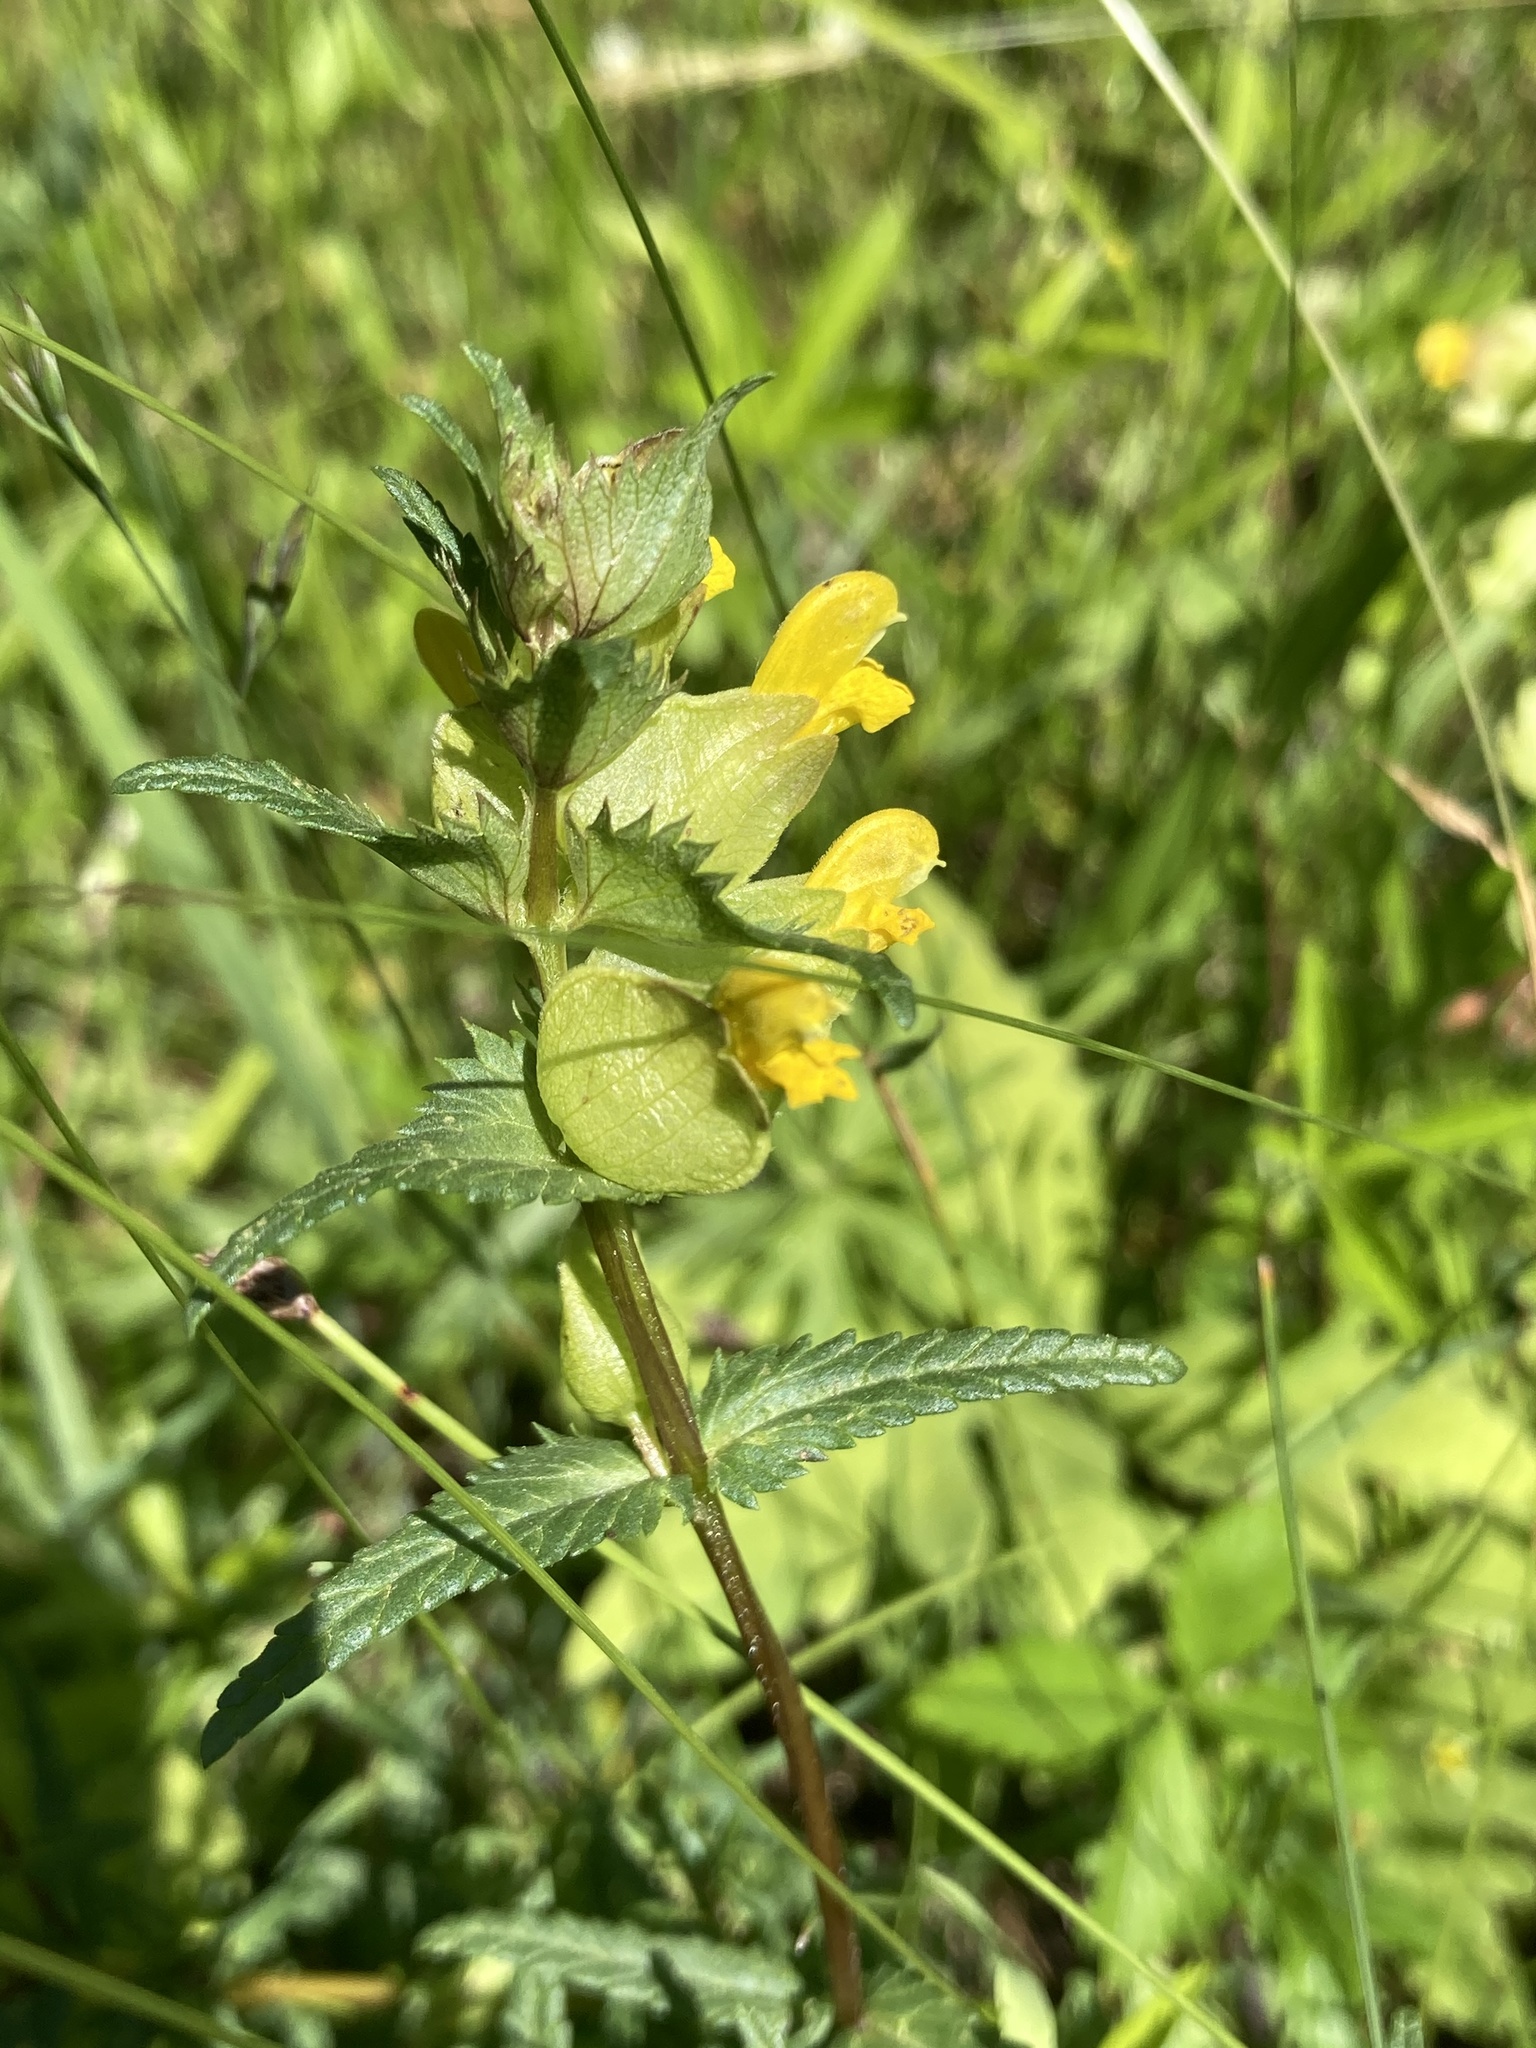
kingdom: Plantae
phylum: Tracheophyta
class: Magnoliopsida
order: Lamiales
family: Orobanchaceae
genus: Rhinanthus
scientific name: Rhinanthus minor
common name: Yellow-rattle
